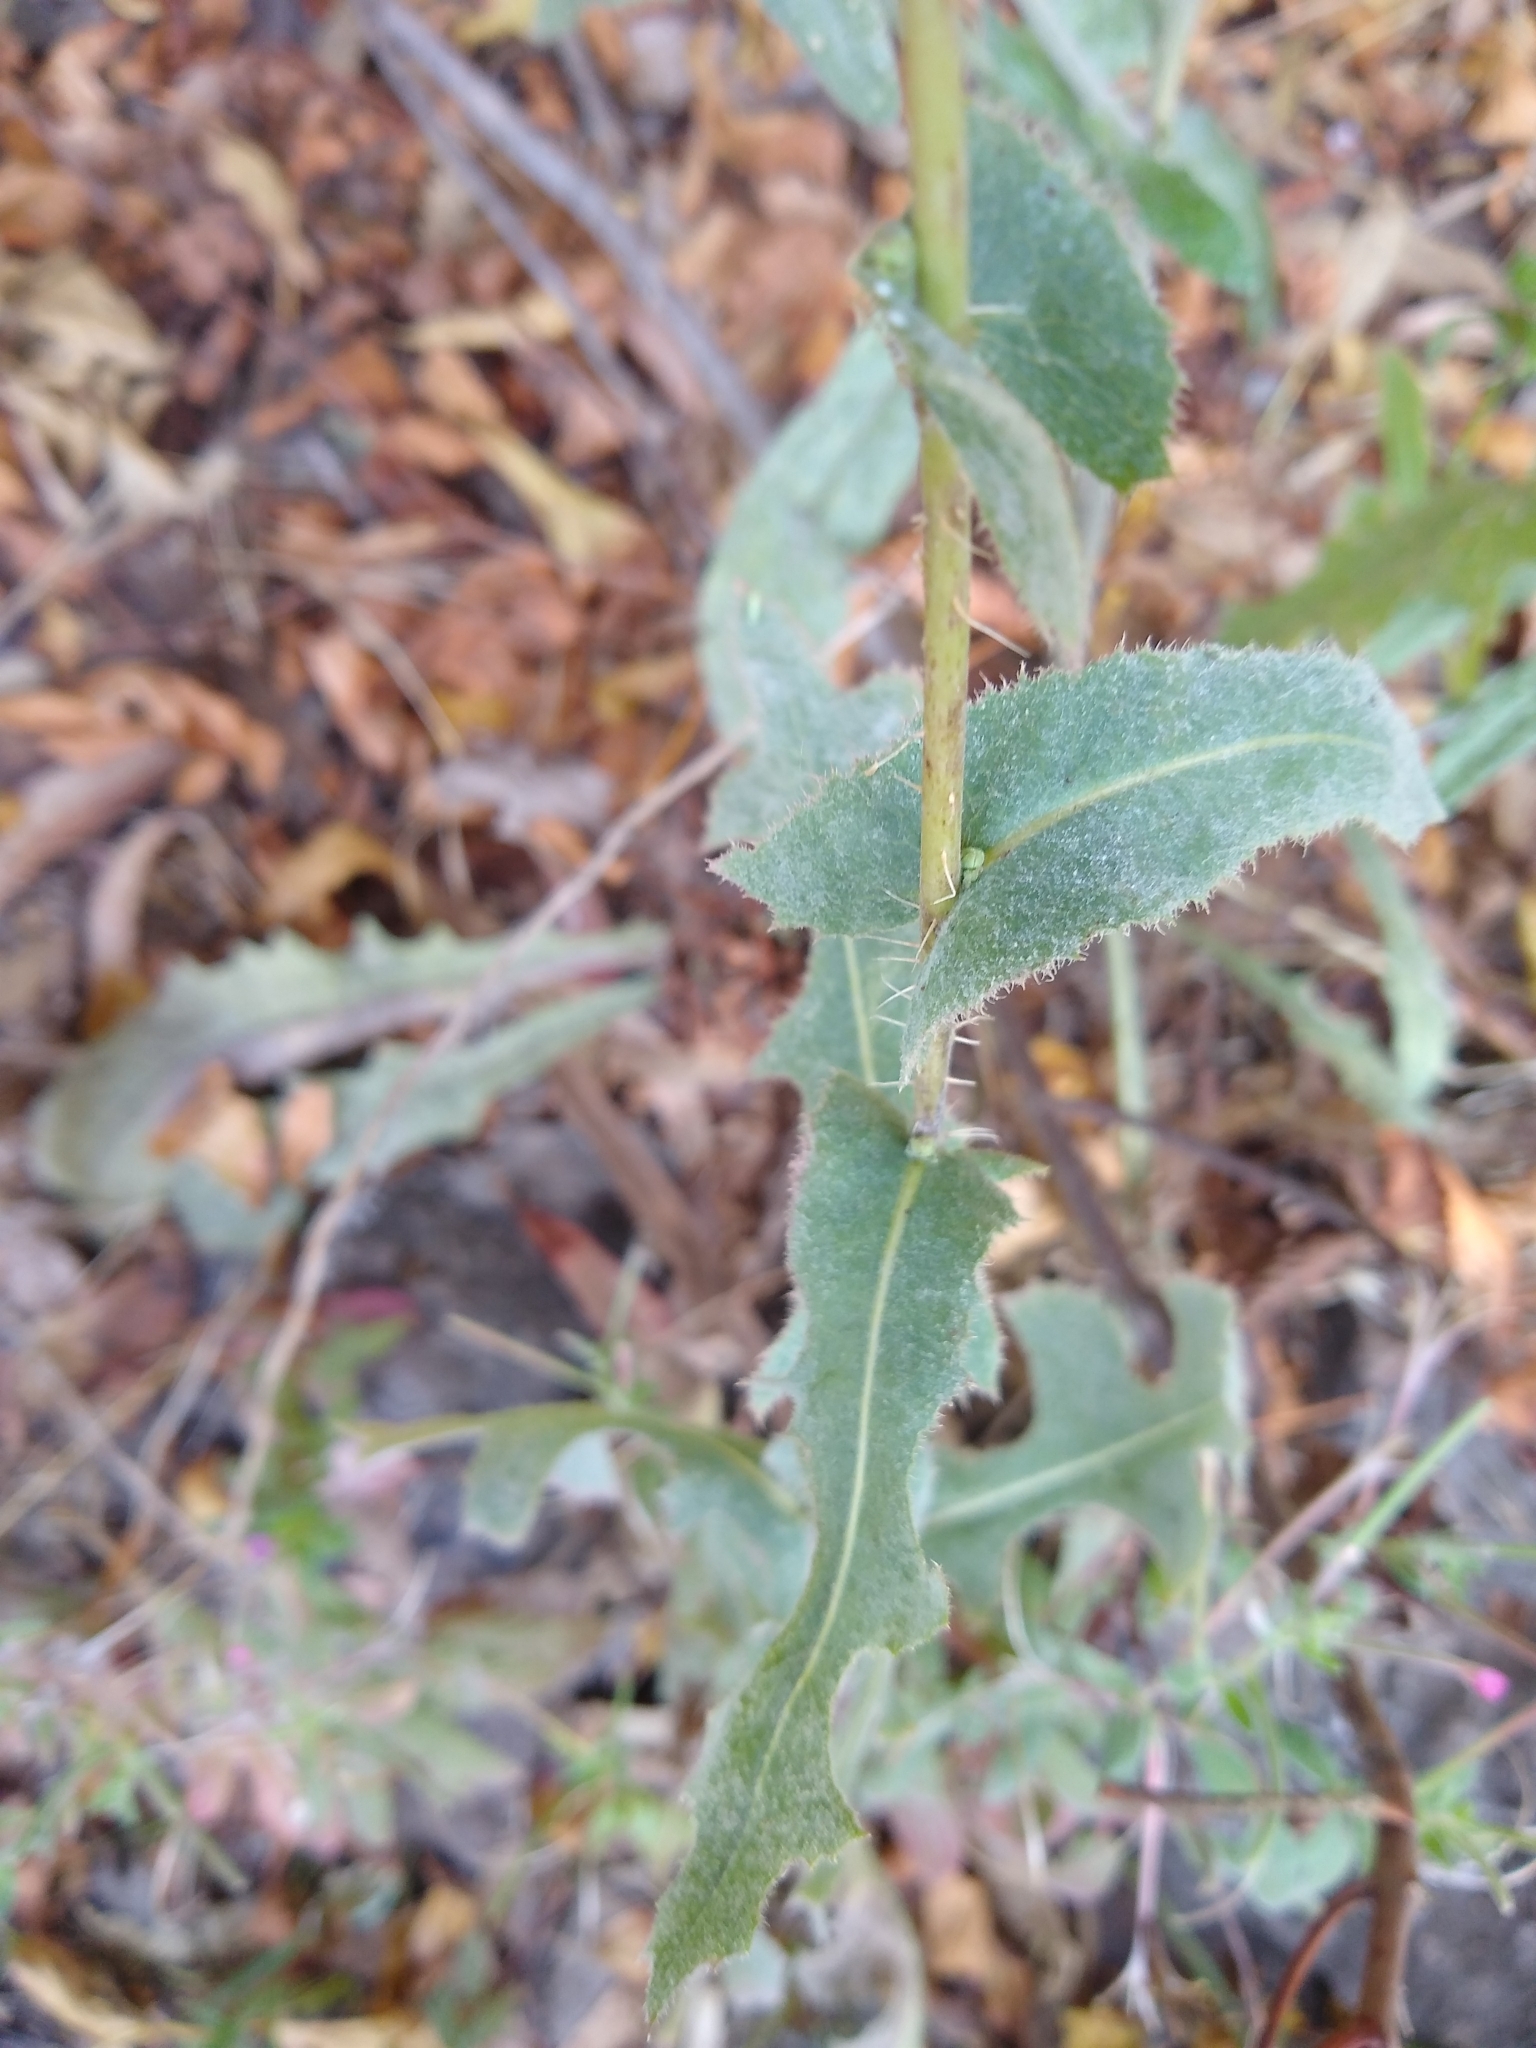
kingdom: Plantae
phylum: Tracheophyta
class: Magnoliopsida
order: Asterales
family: Asteraceae
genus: Lactuca
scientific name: Lactuca serriola
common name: Prickly lettuce
